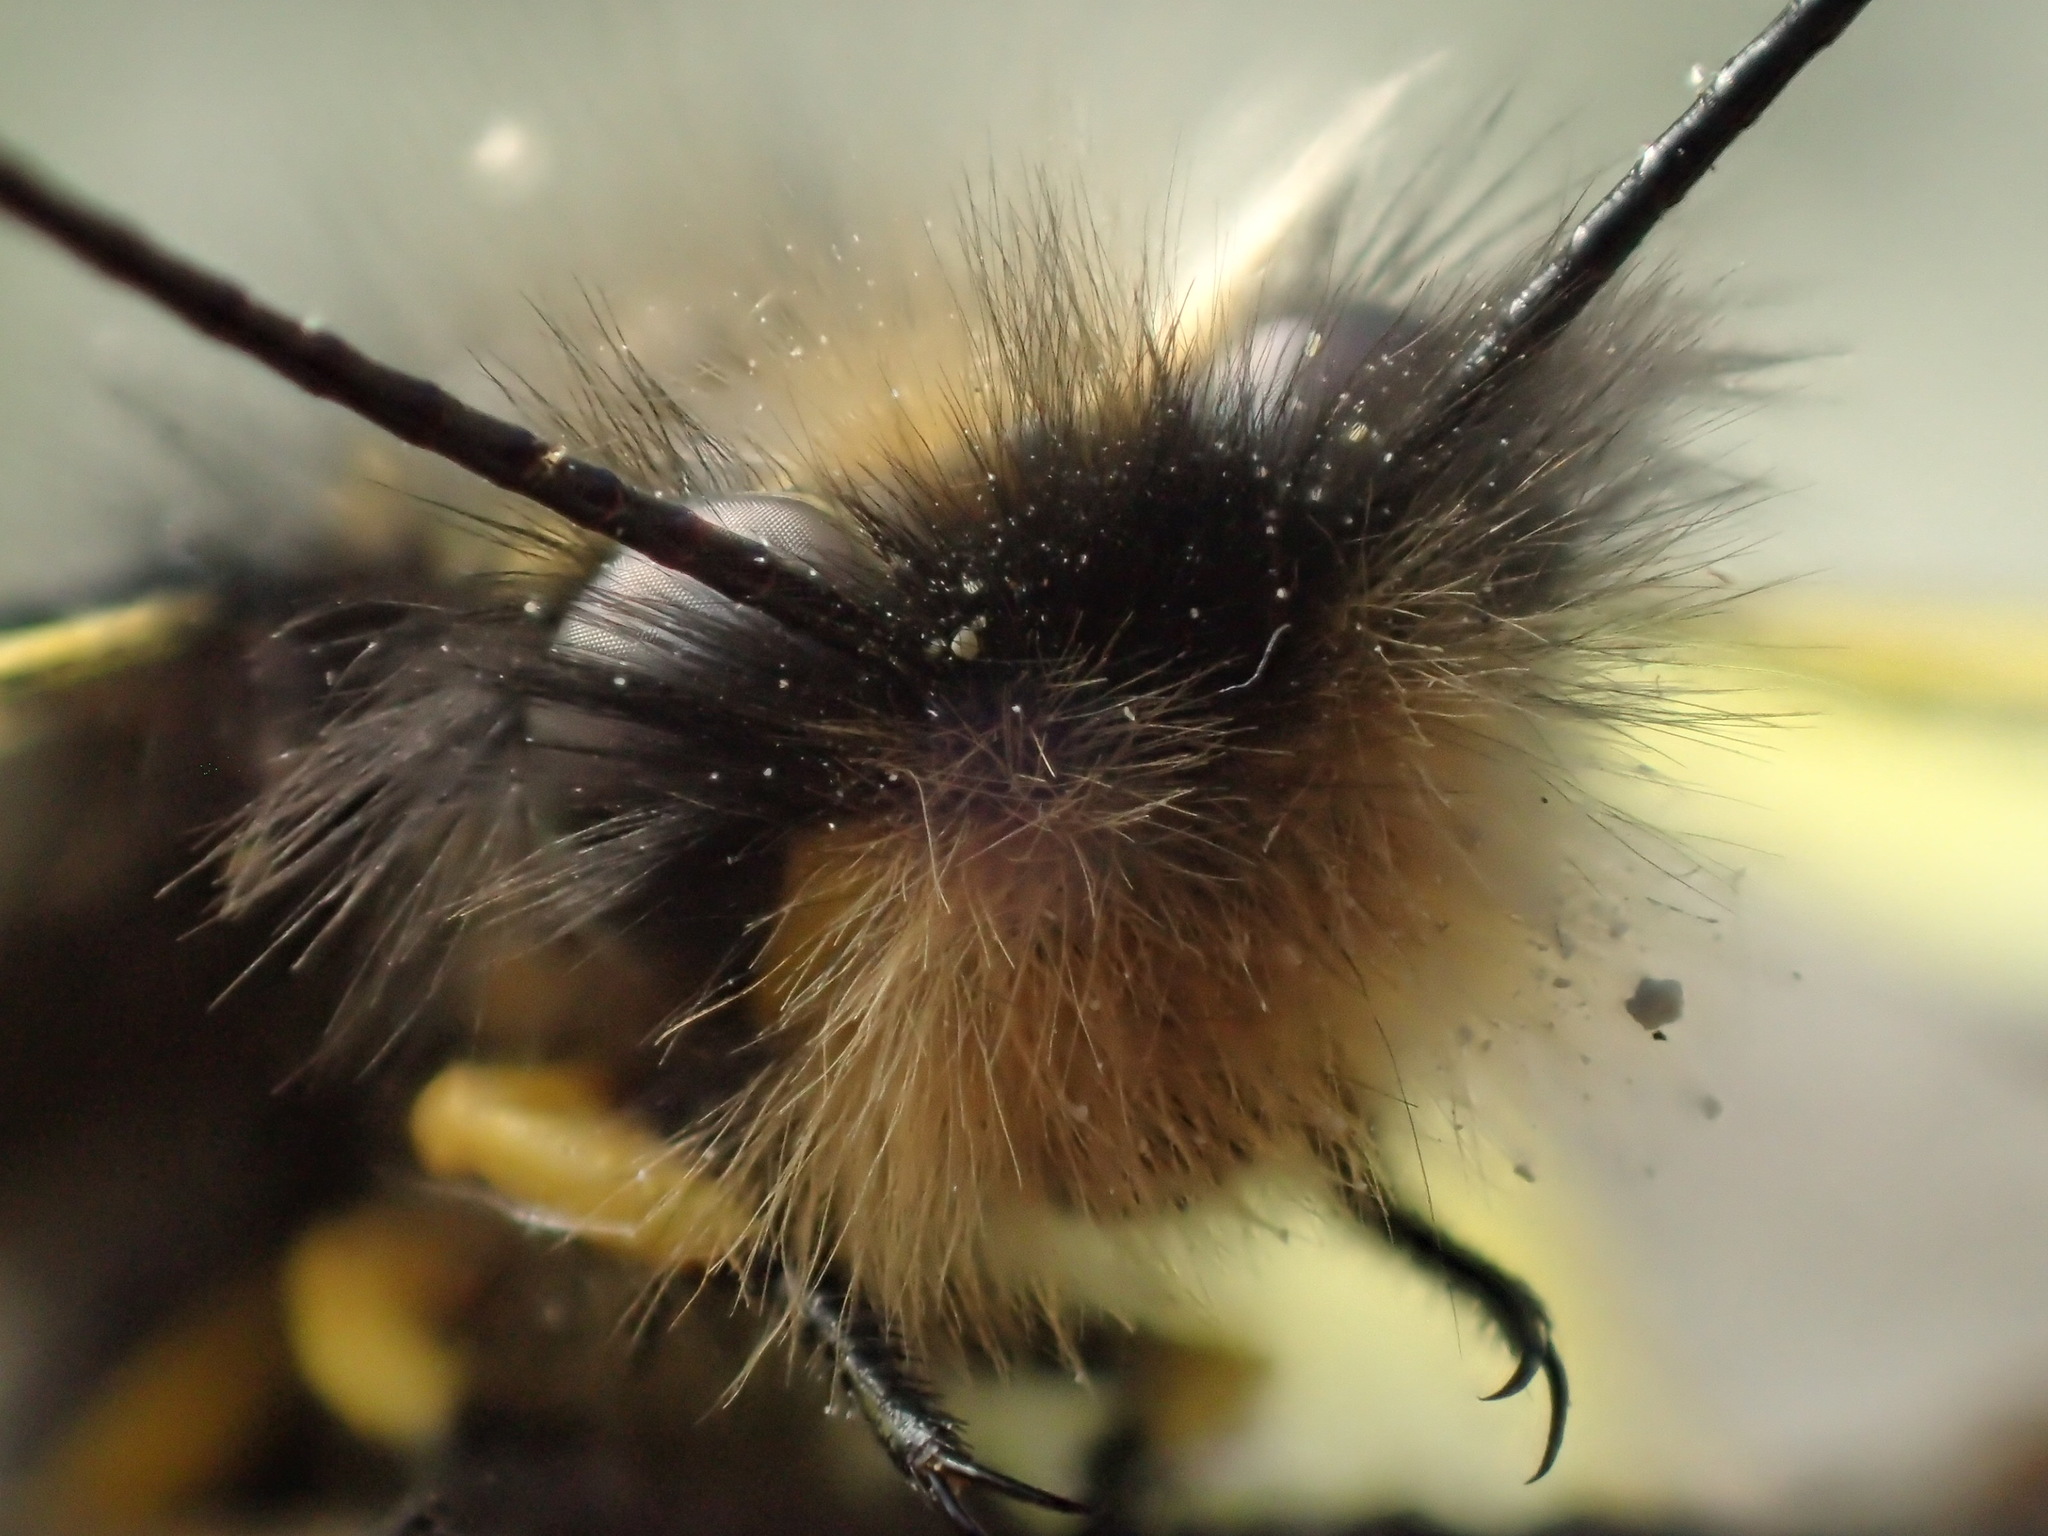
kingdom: Animalia
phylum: Arthropoda
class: Insecta
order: Neuroptera
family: Ascalaphidae
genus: Libelloides
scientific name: Libelloides coccajus
